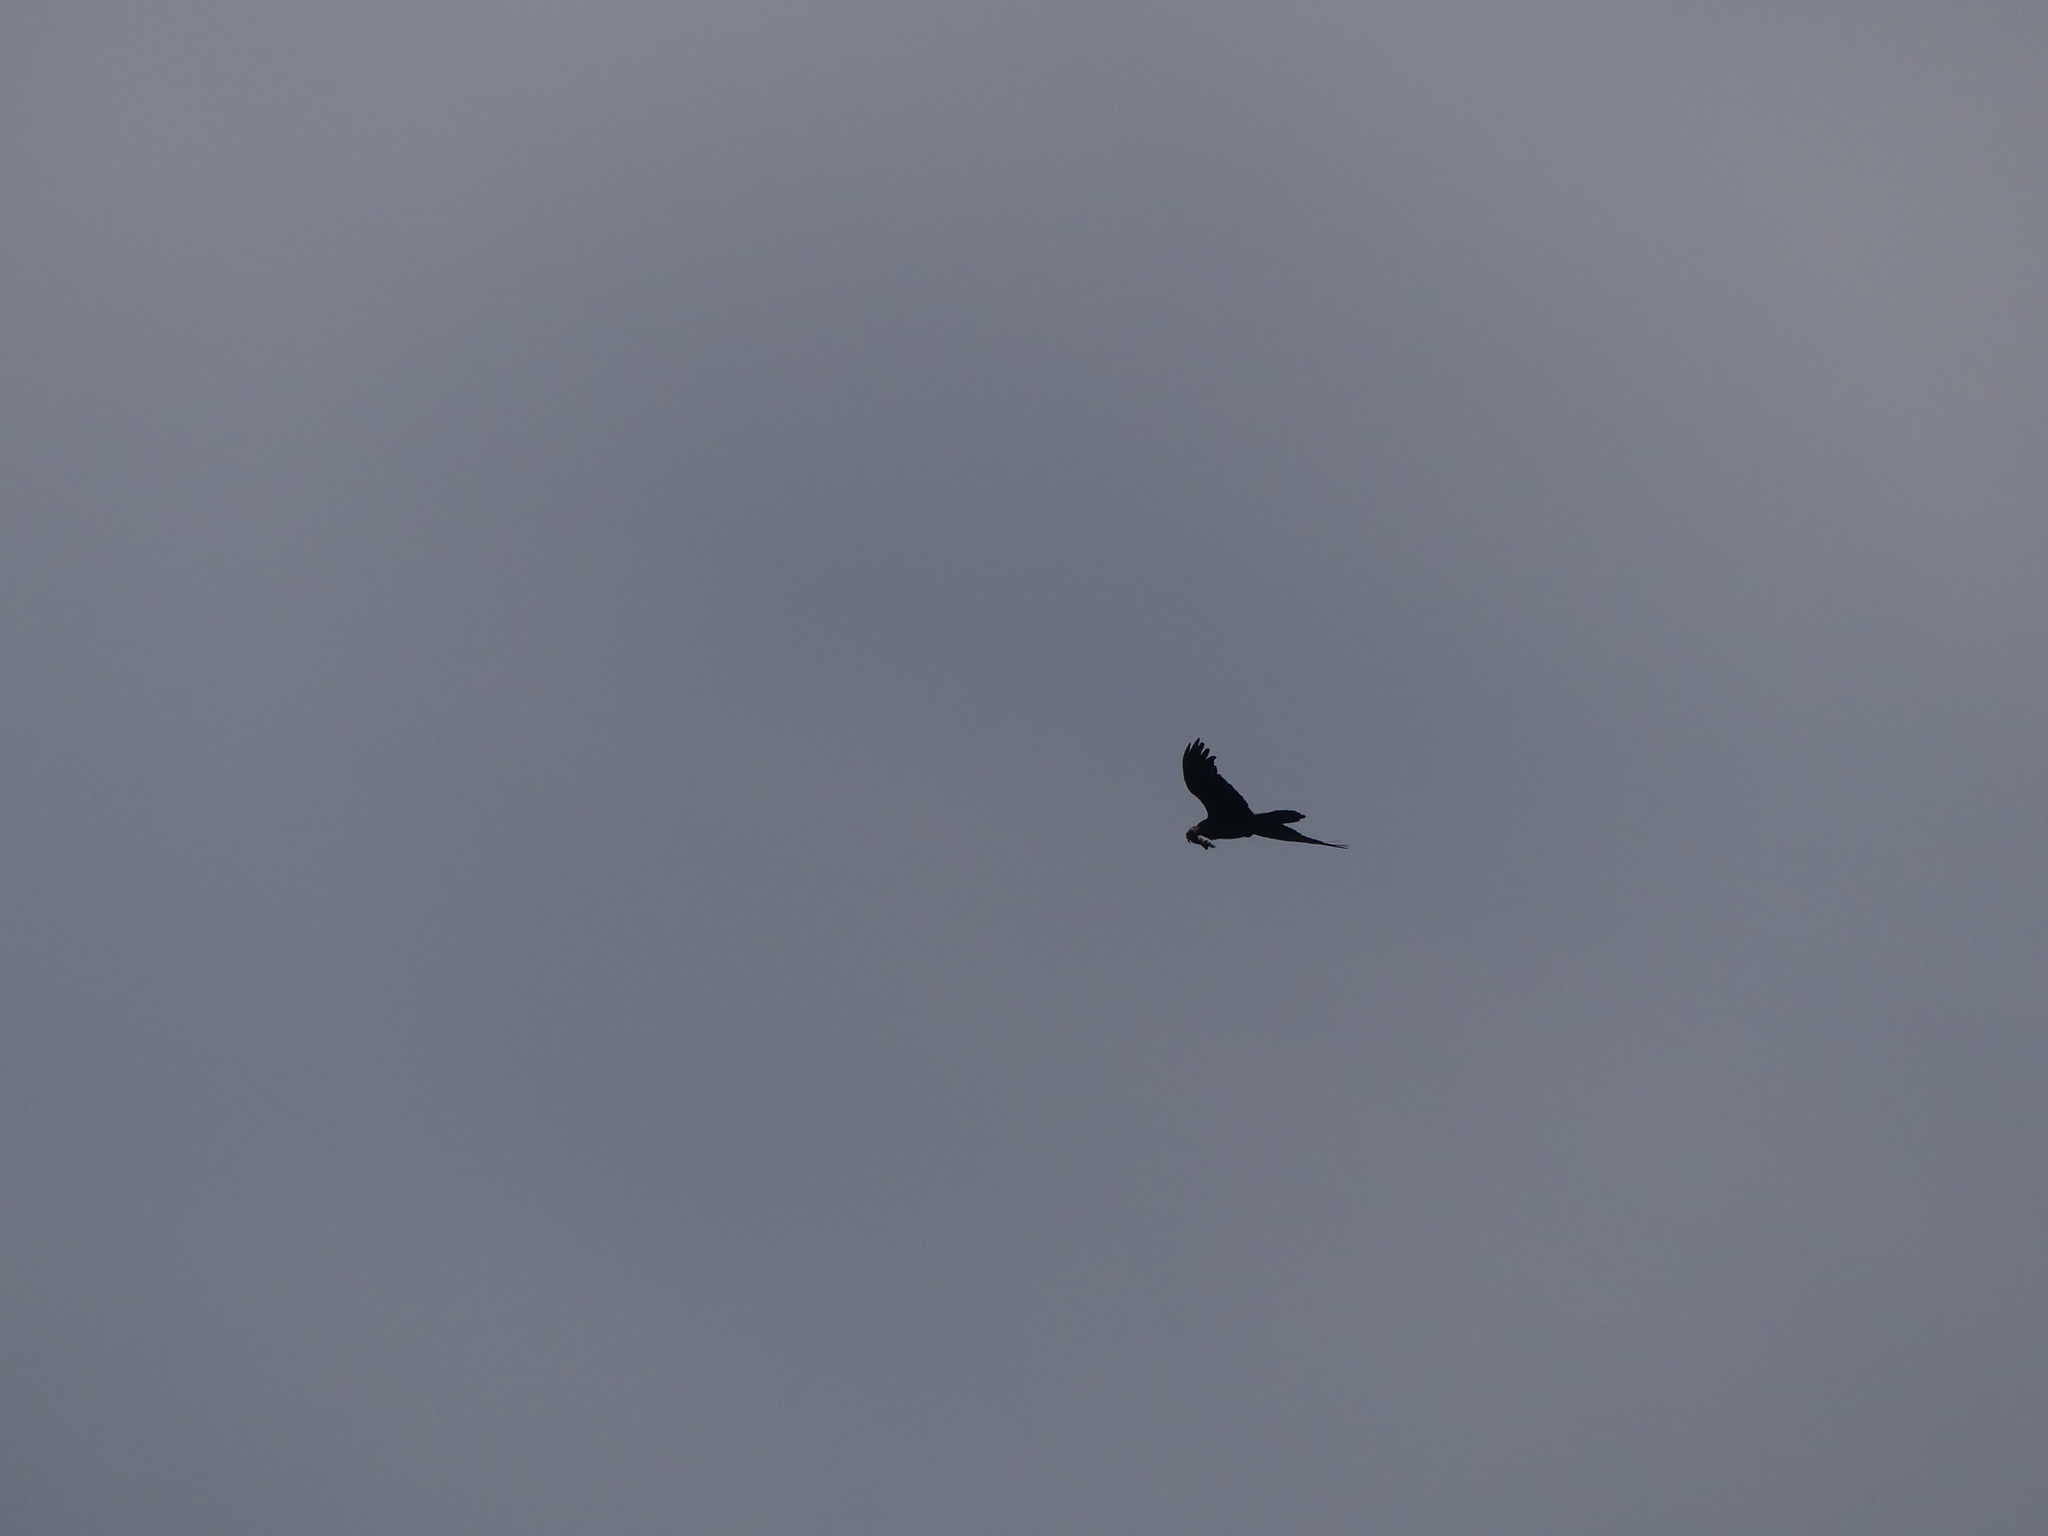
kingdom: Animalia
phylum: Chordata
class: Aves
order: Passeriformes
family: Corvidae
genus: Corvus
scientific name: Corvus corax
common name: Common raven
